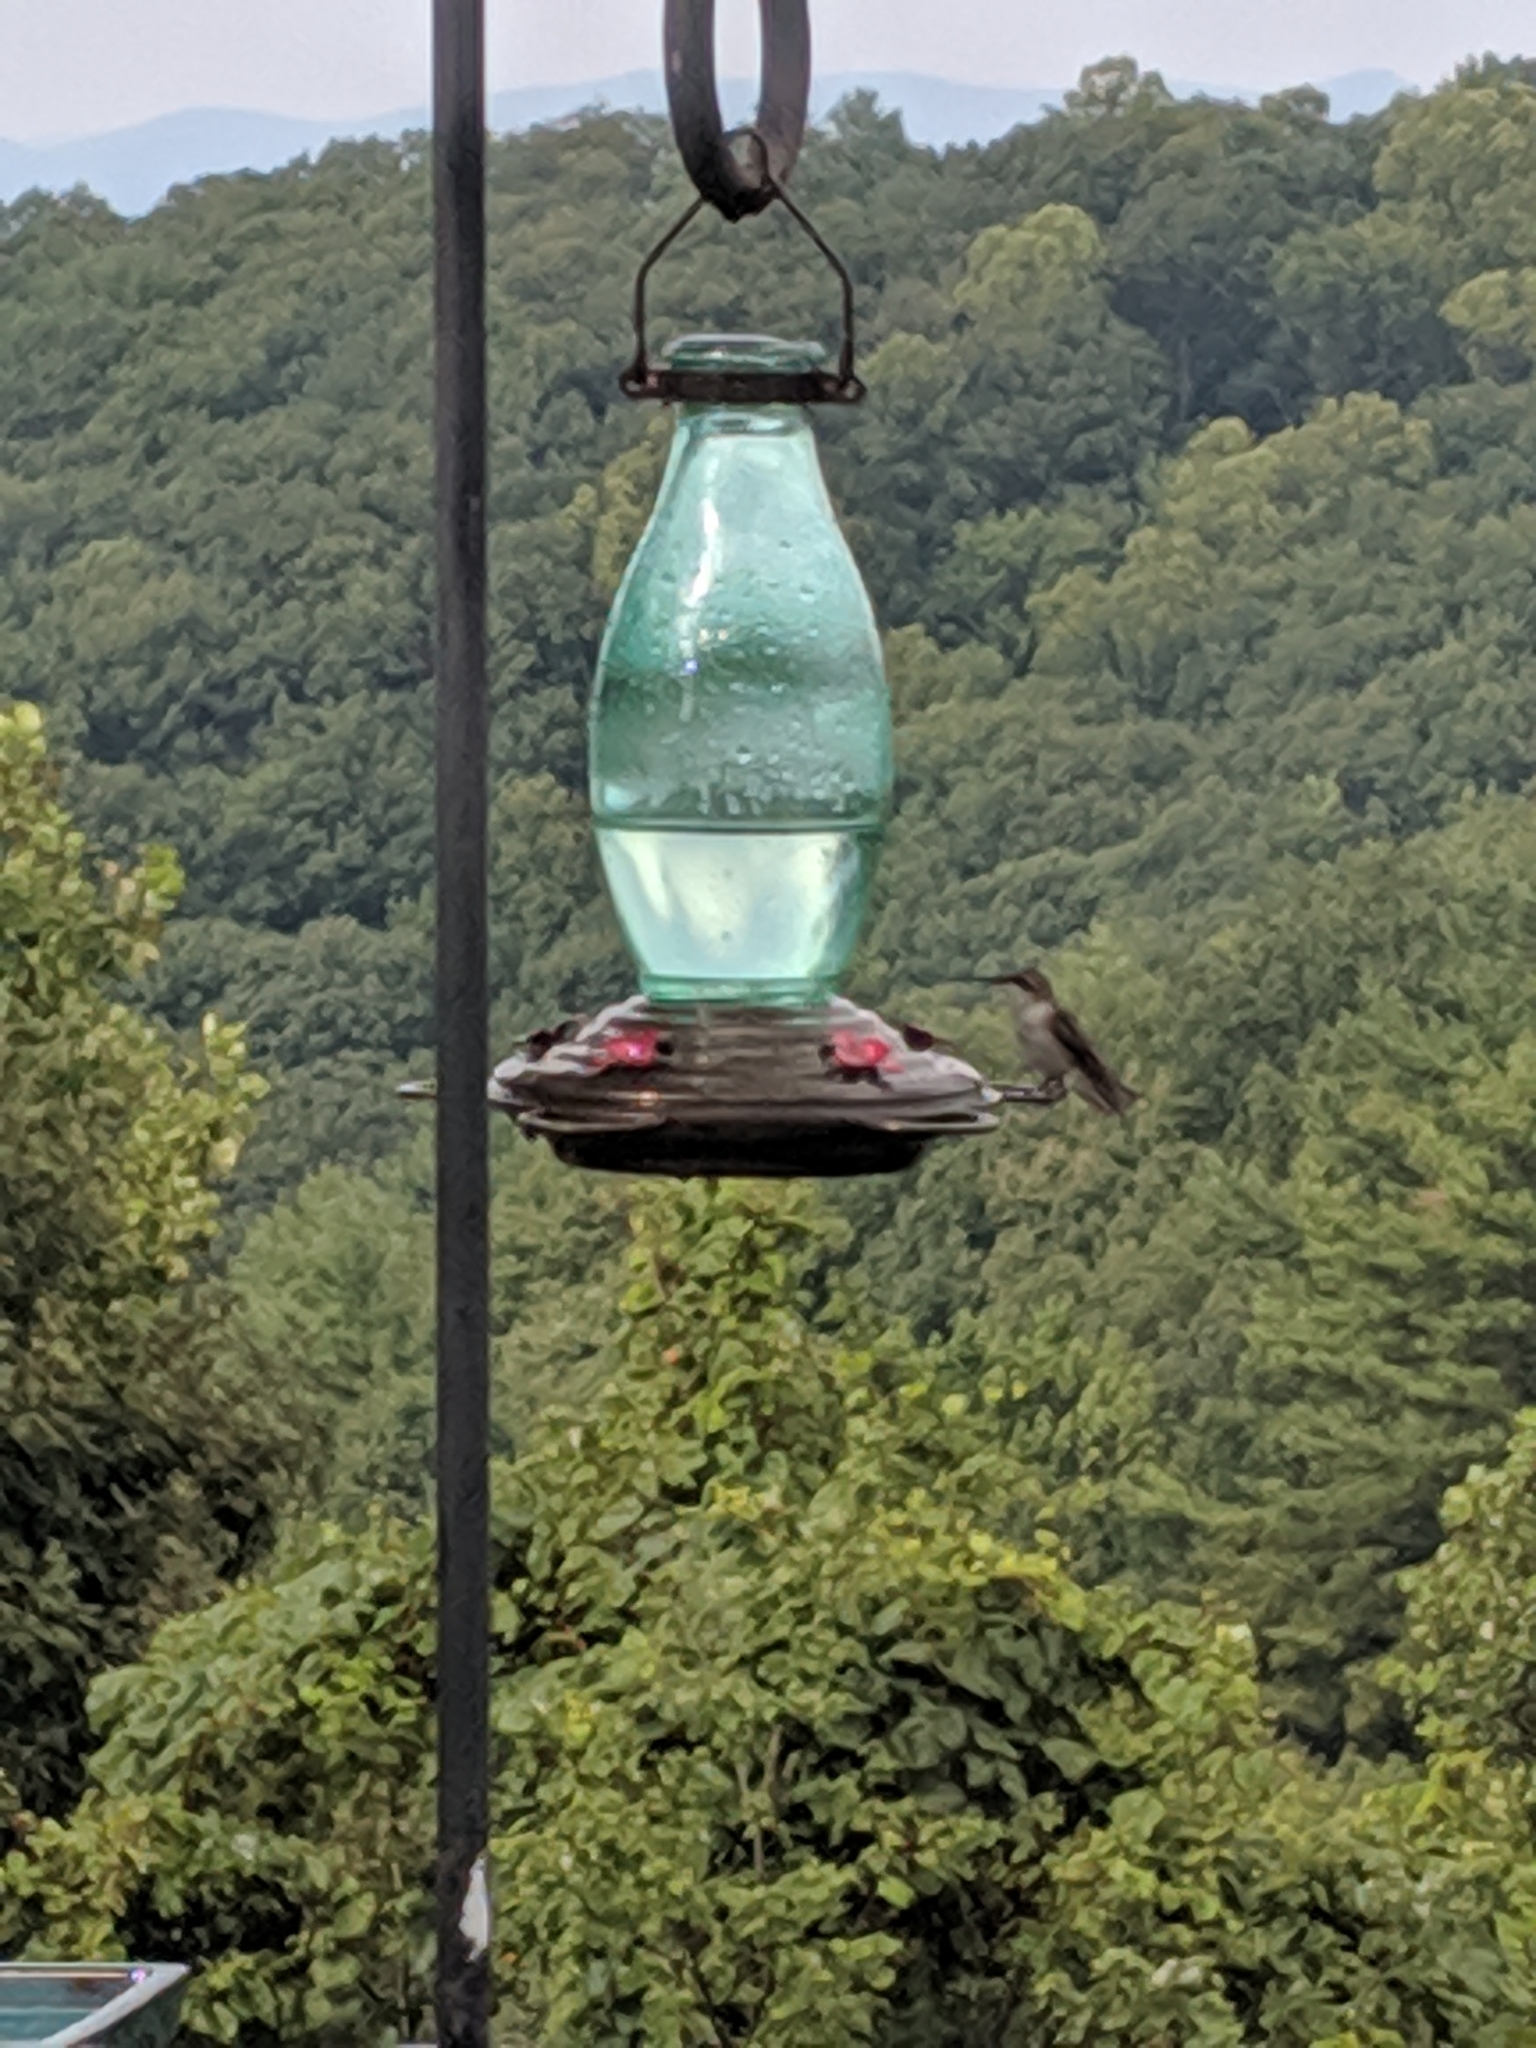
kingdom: Animalia
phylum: Chordata
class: Aves
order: Apodiformes
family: Trochilidae
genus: Archilochus
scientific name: Archilochus colubris
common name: Ruby-throated hummingbird
